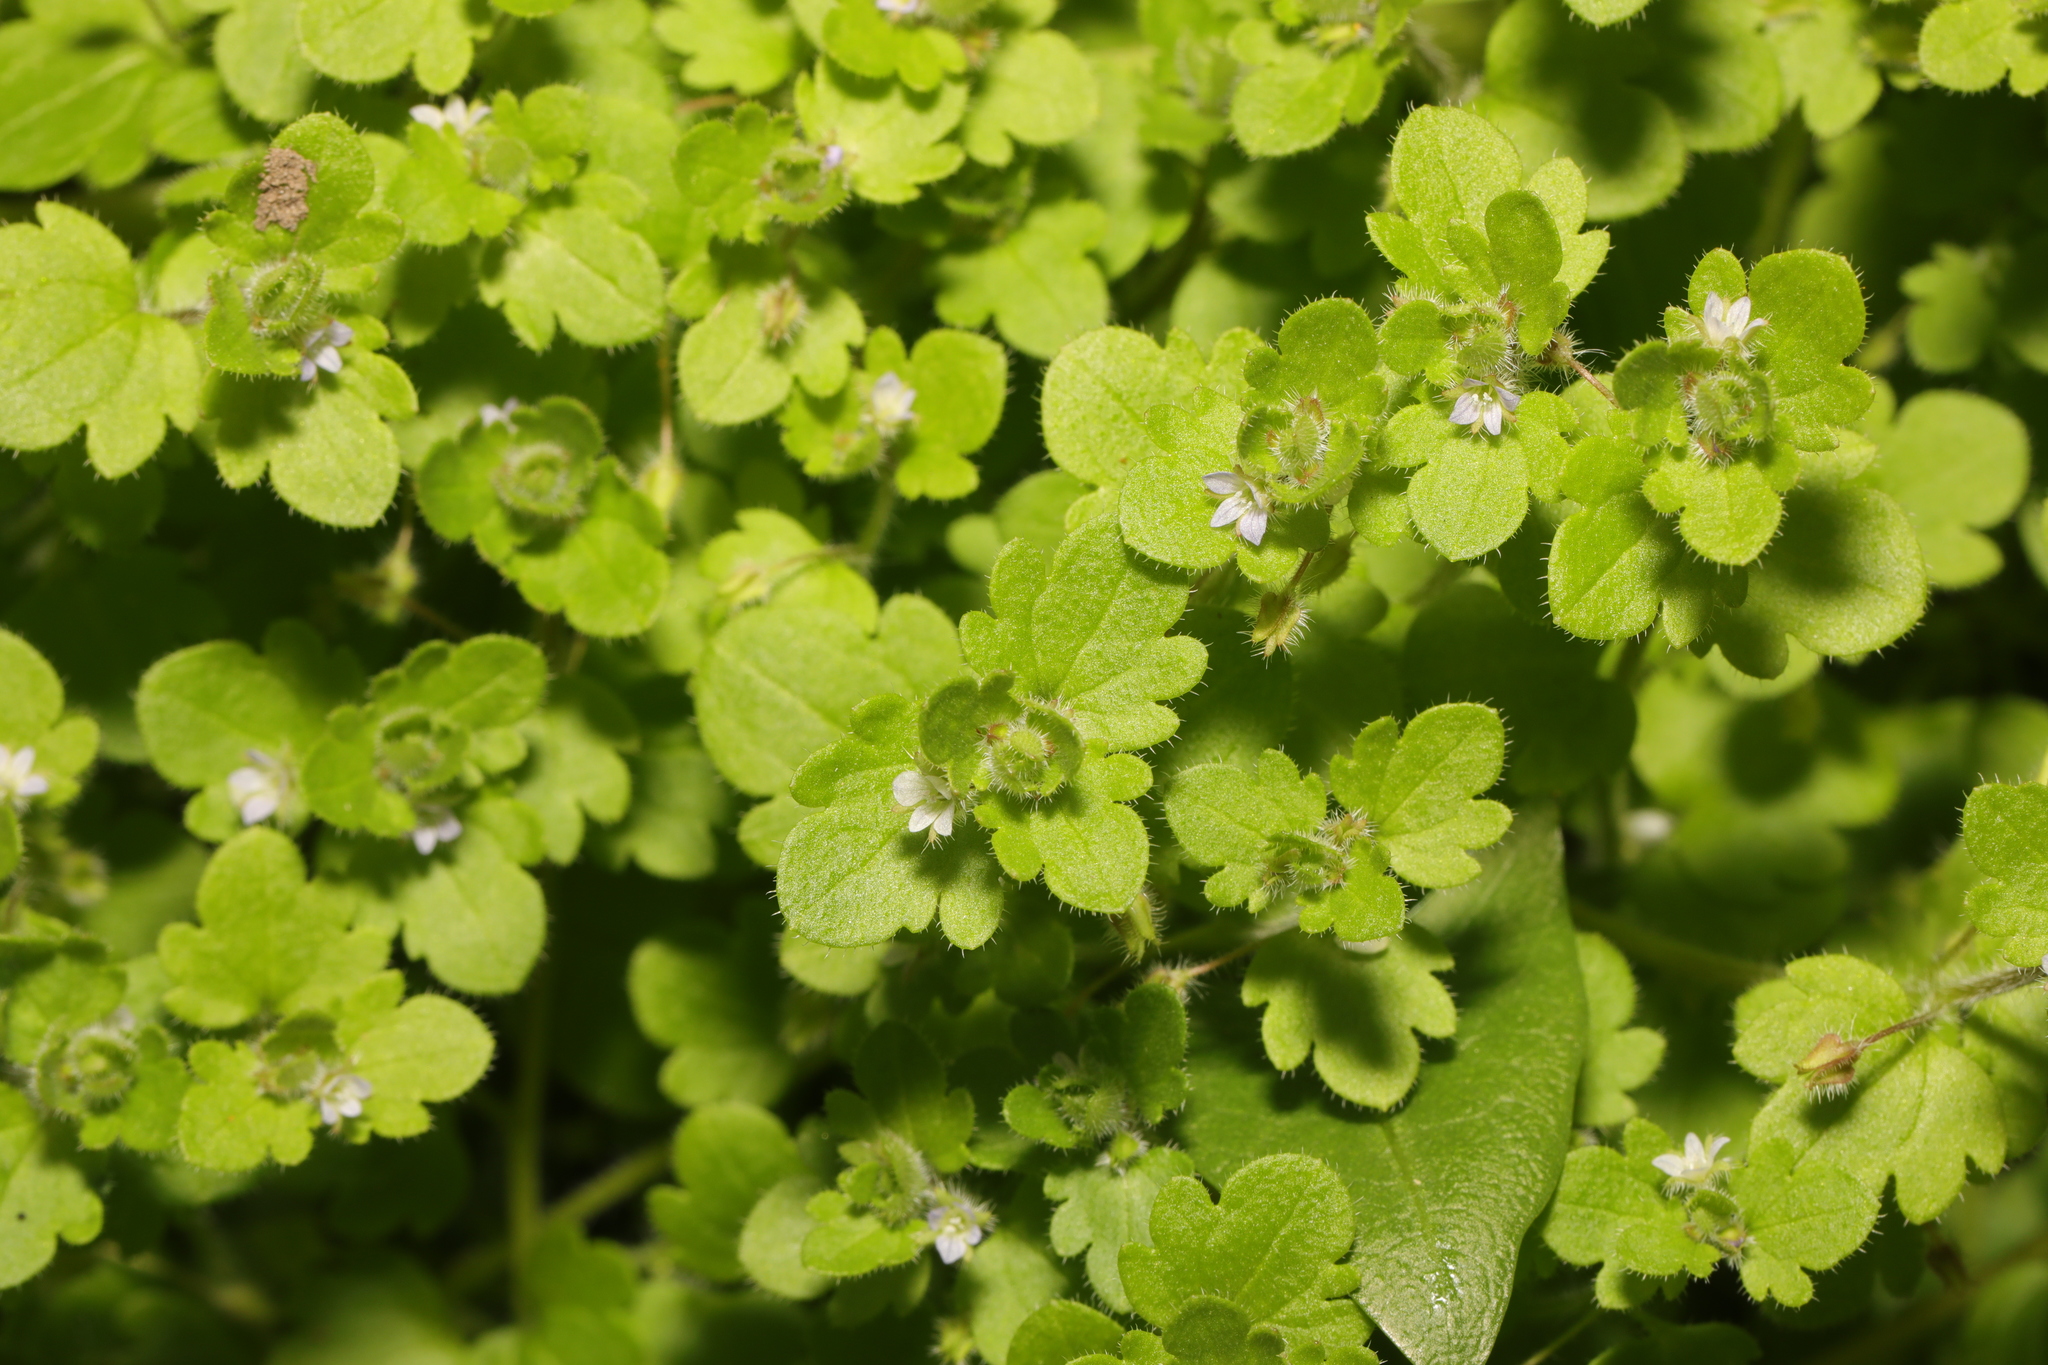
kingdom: Plantae
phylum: Tracheophyta
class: Magnoliopsida
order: Lamiales
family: Plantaginaceae
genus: Veronica
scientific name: Veronica hederifolia
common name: Ivy-leaved speedwell
